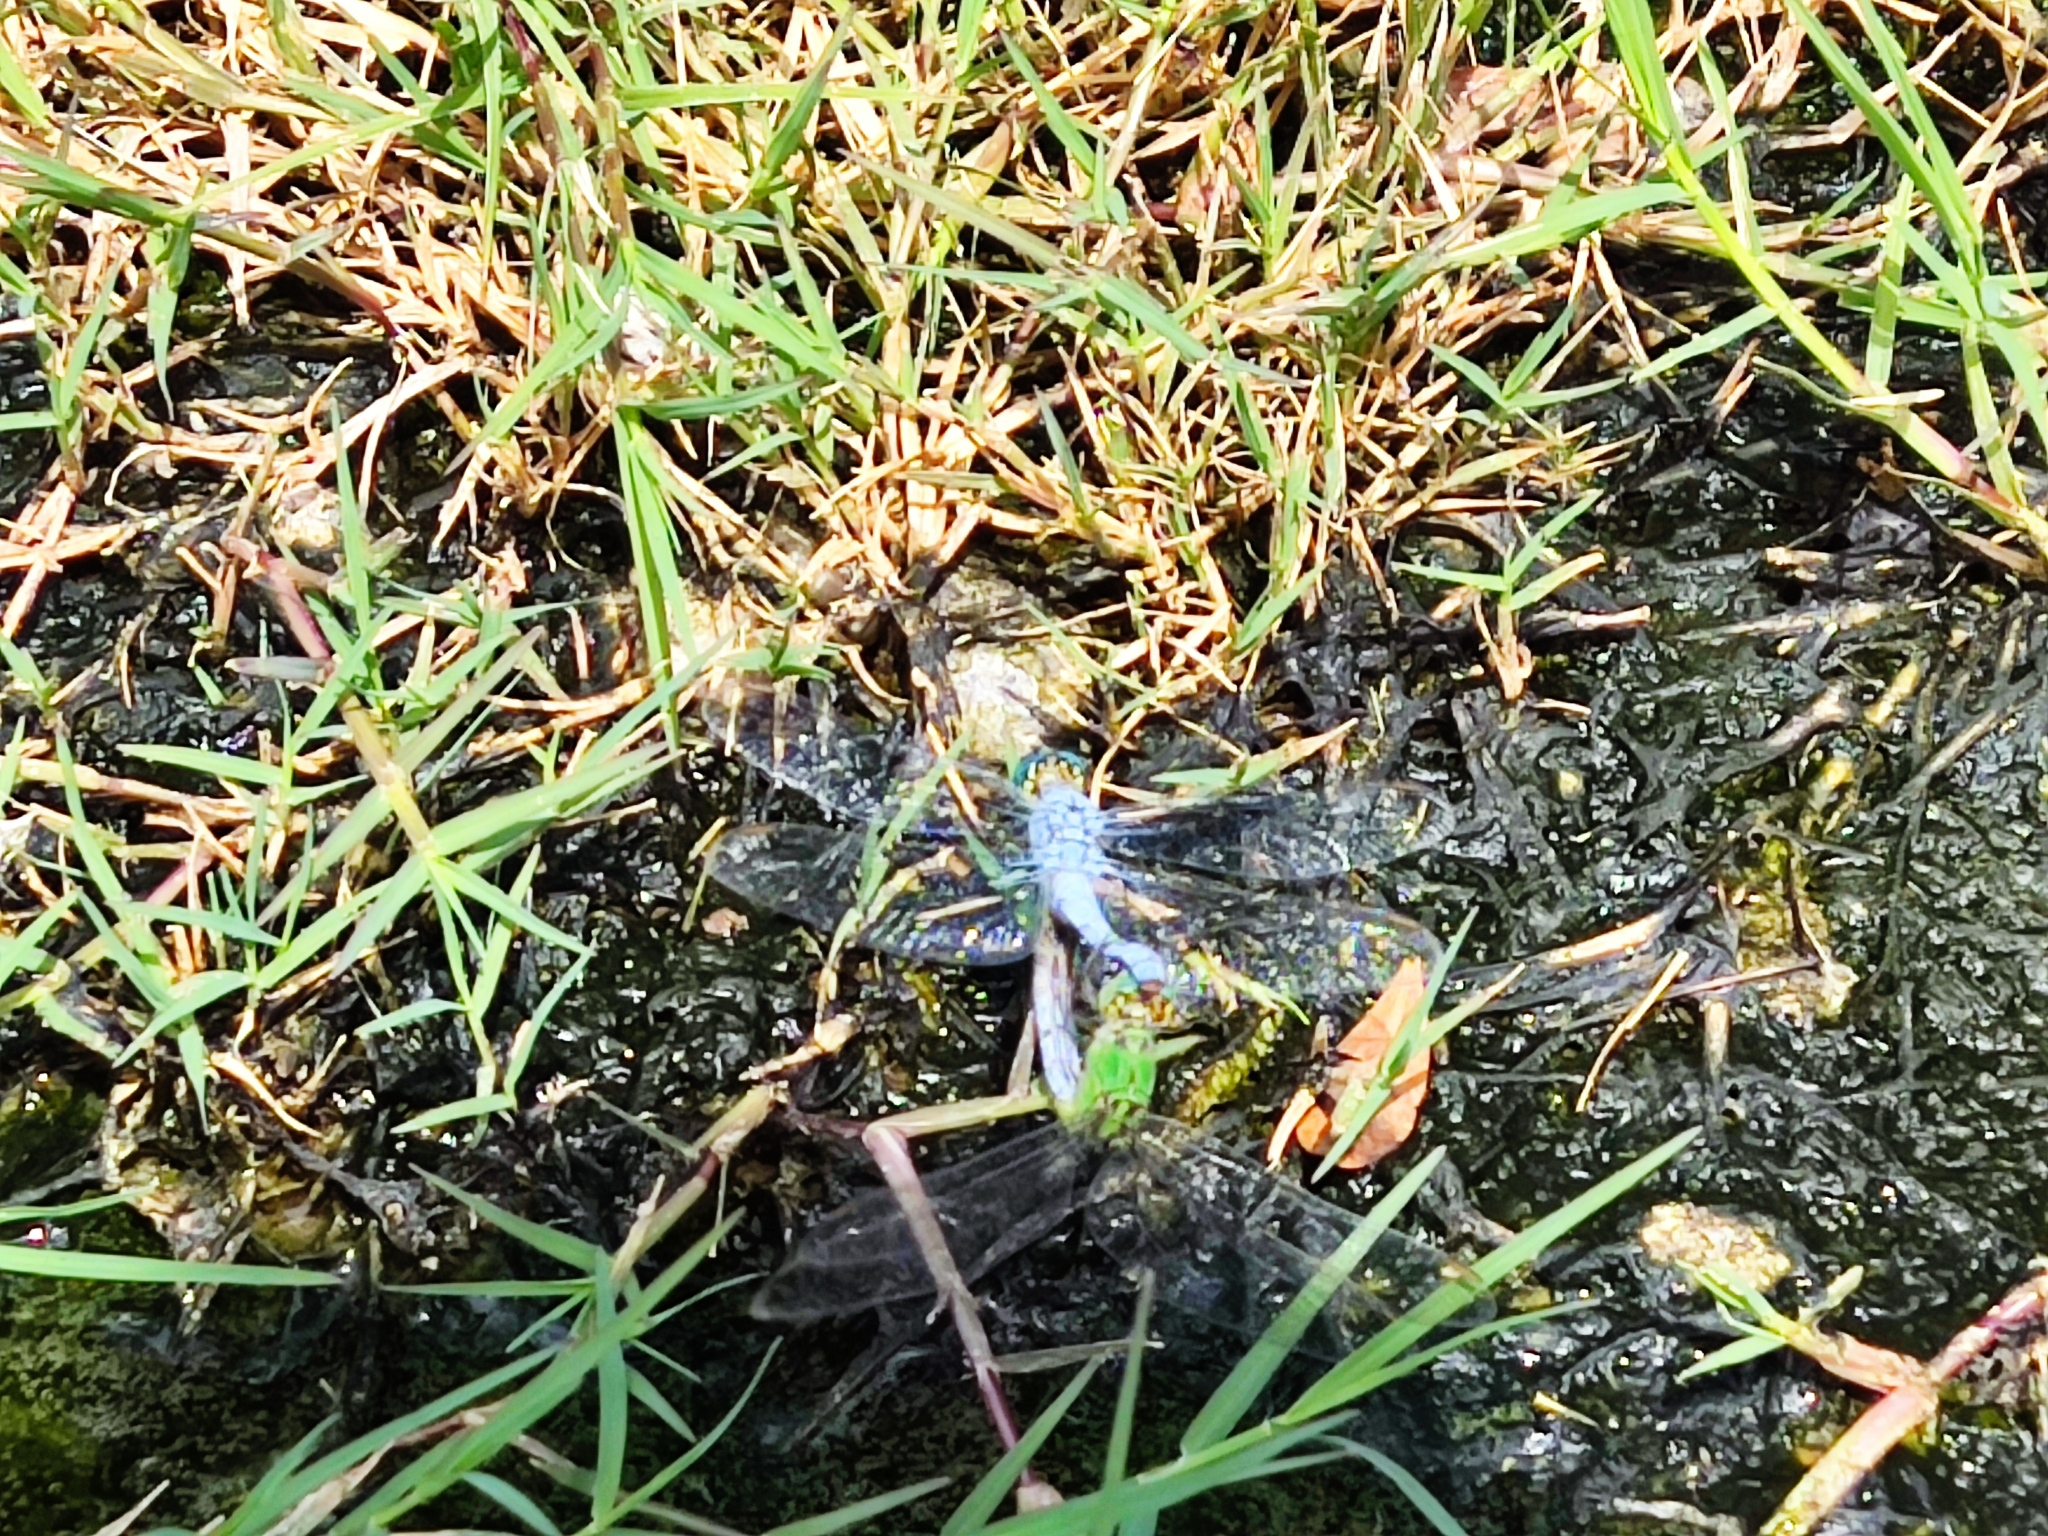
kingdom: Animalia
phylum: Arthropoda
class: Insecta
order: Odonata
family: Libellulidae
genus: Erythemis
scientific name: Erythemis collocata
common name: Western pondhawk
